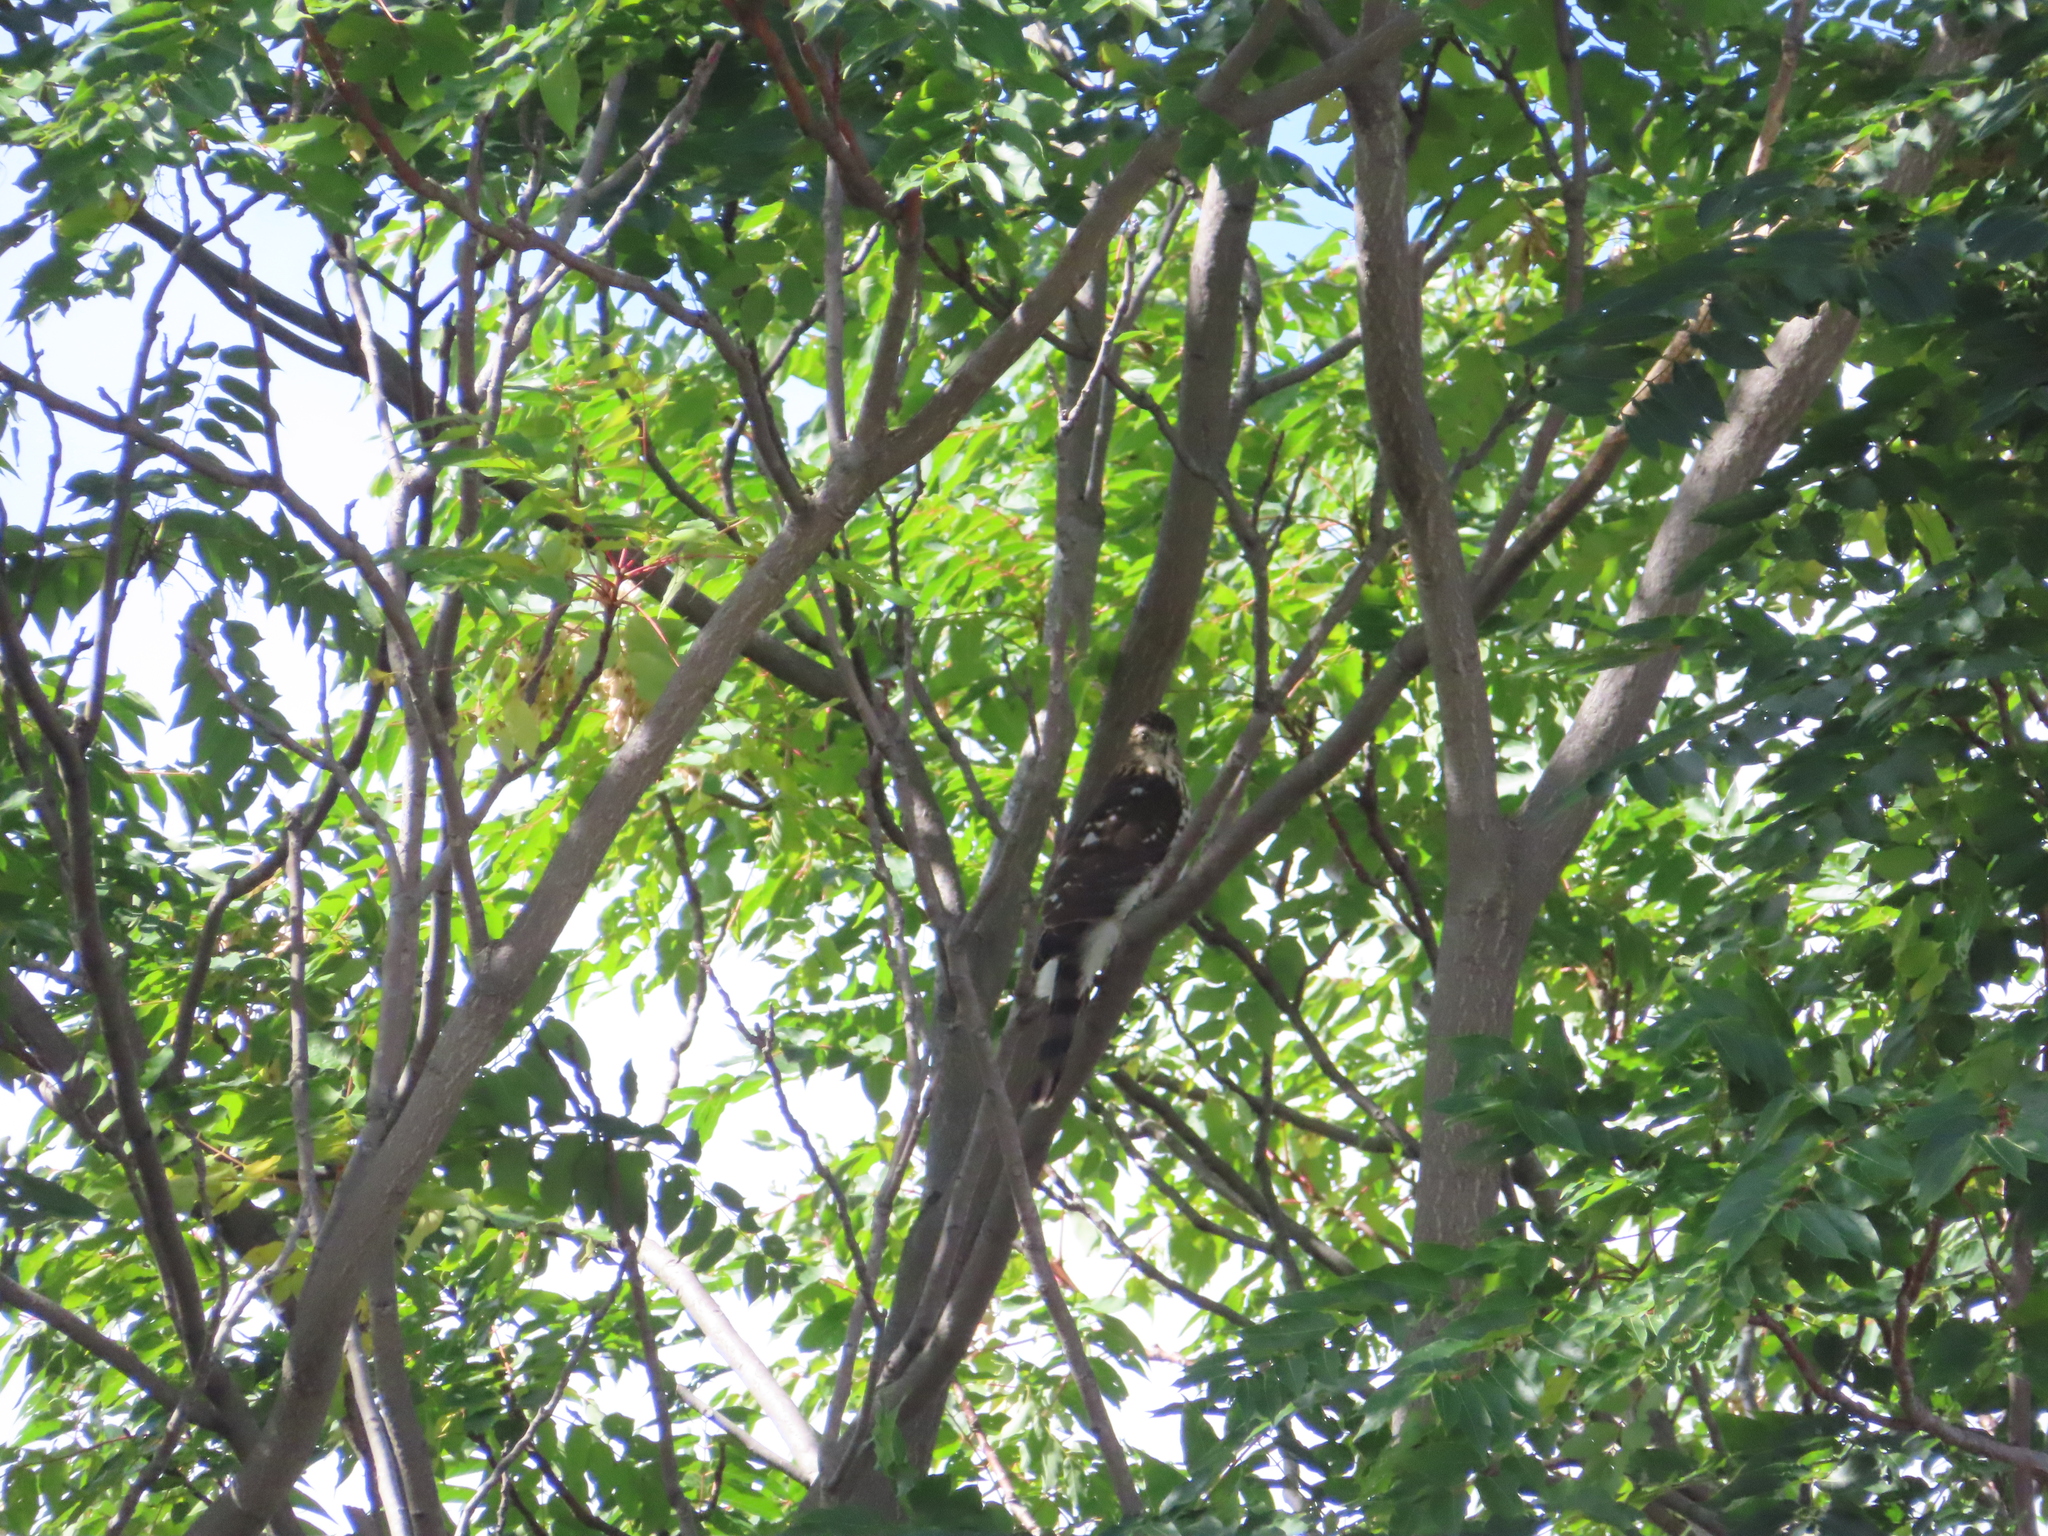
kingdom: Animalia
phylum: Chordata
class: Aves
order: Accipitriformes
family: Accipitridae
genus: Accipiter
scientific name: Accipiter cooperii
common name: Cooper's hawk
